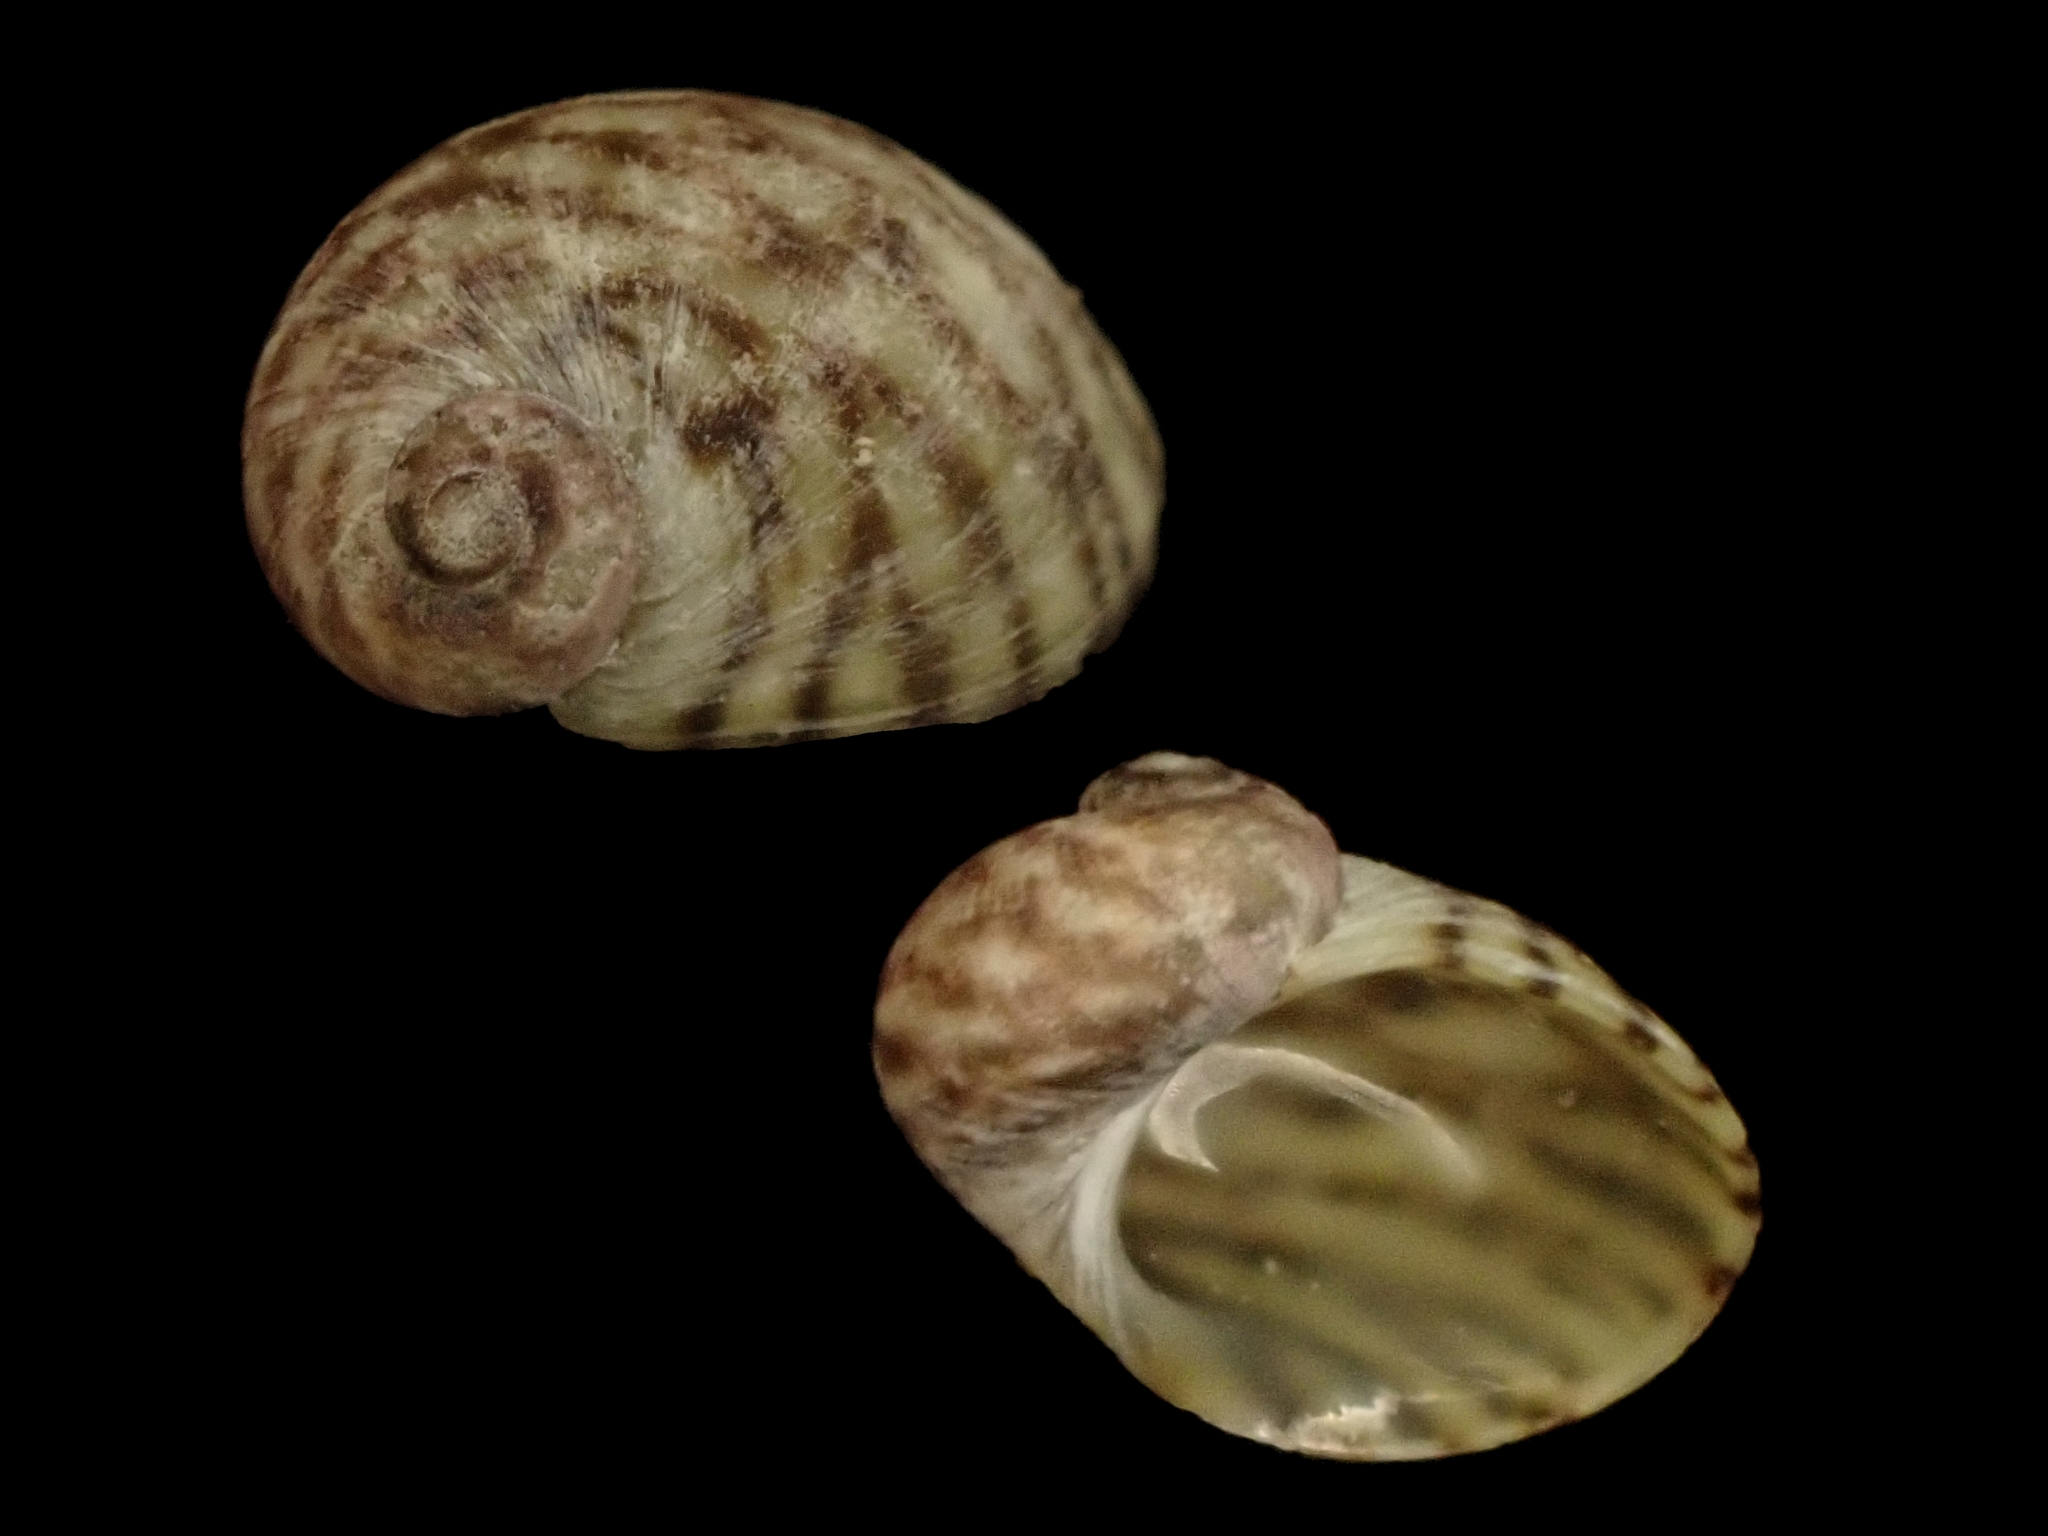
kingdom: Animalia
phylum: Mollusca
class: Gastropoda
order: Trochida
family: Trochidae
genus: Fossarina
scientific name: Fossarina rimata
